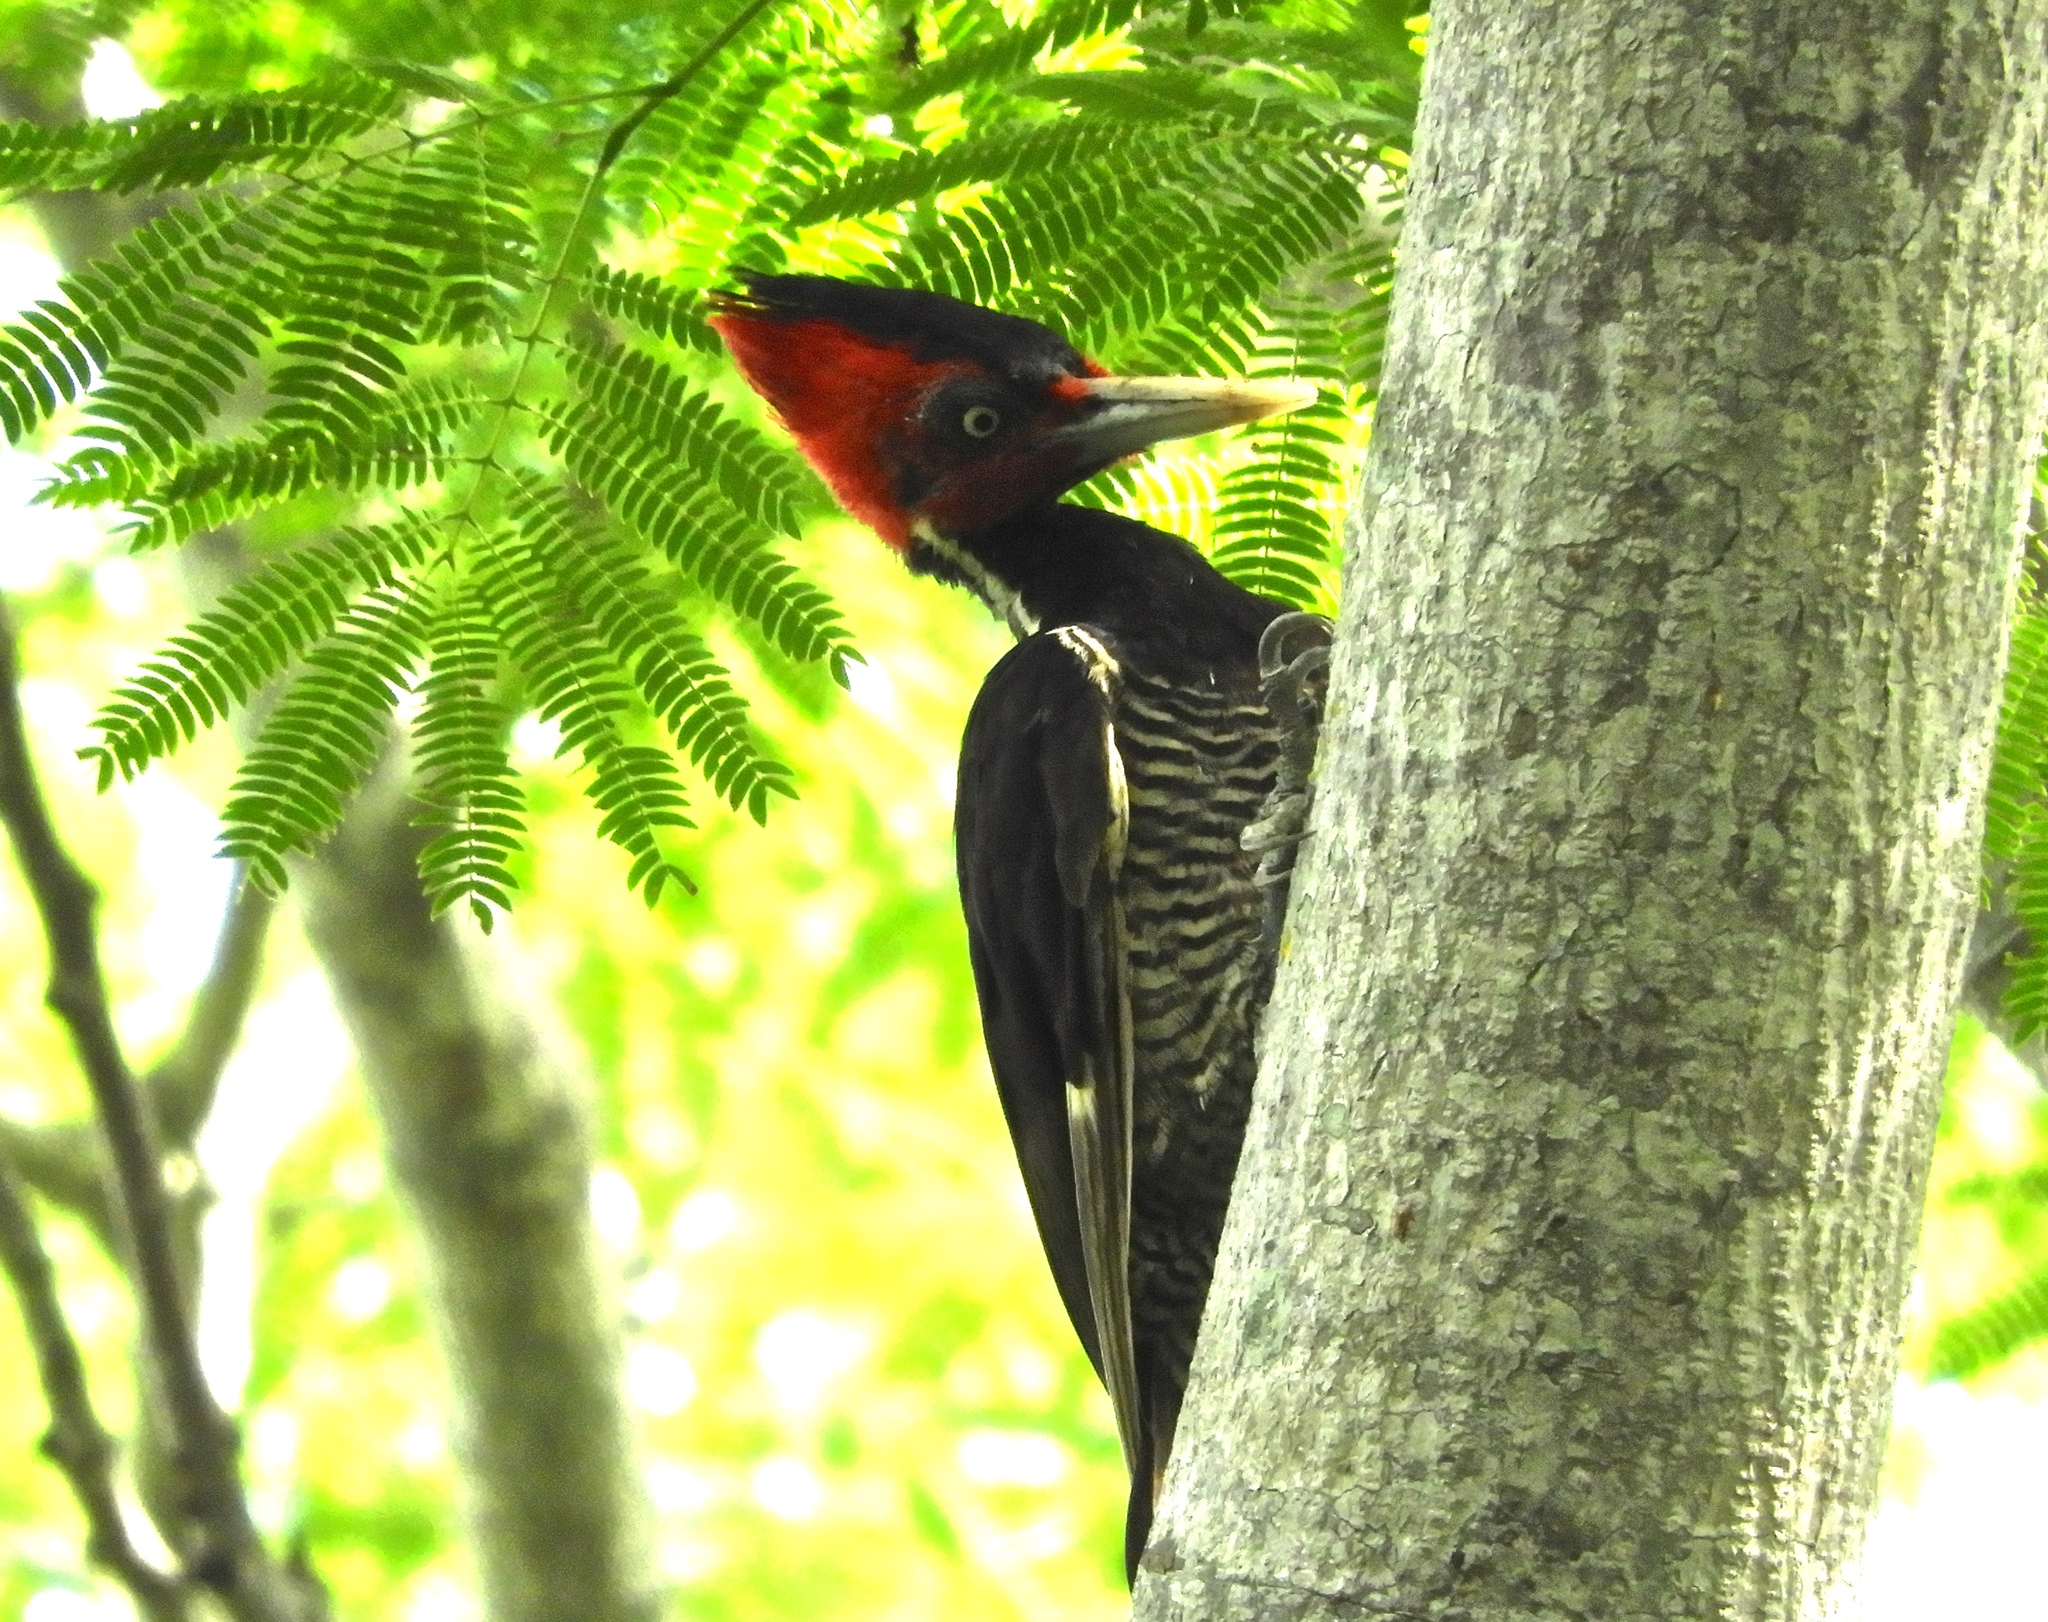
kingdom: Animalia
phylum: Chordata
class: Aves
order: Piciformes
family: Picidae
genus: Campephilus
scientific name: Campephilus guatemalensis
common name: Pale-billed woodpecker
